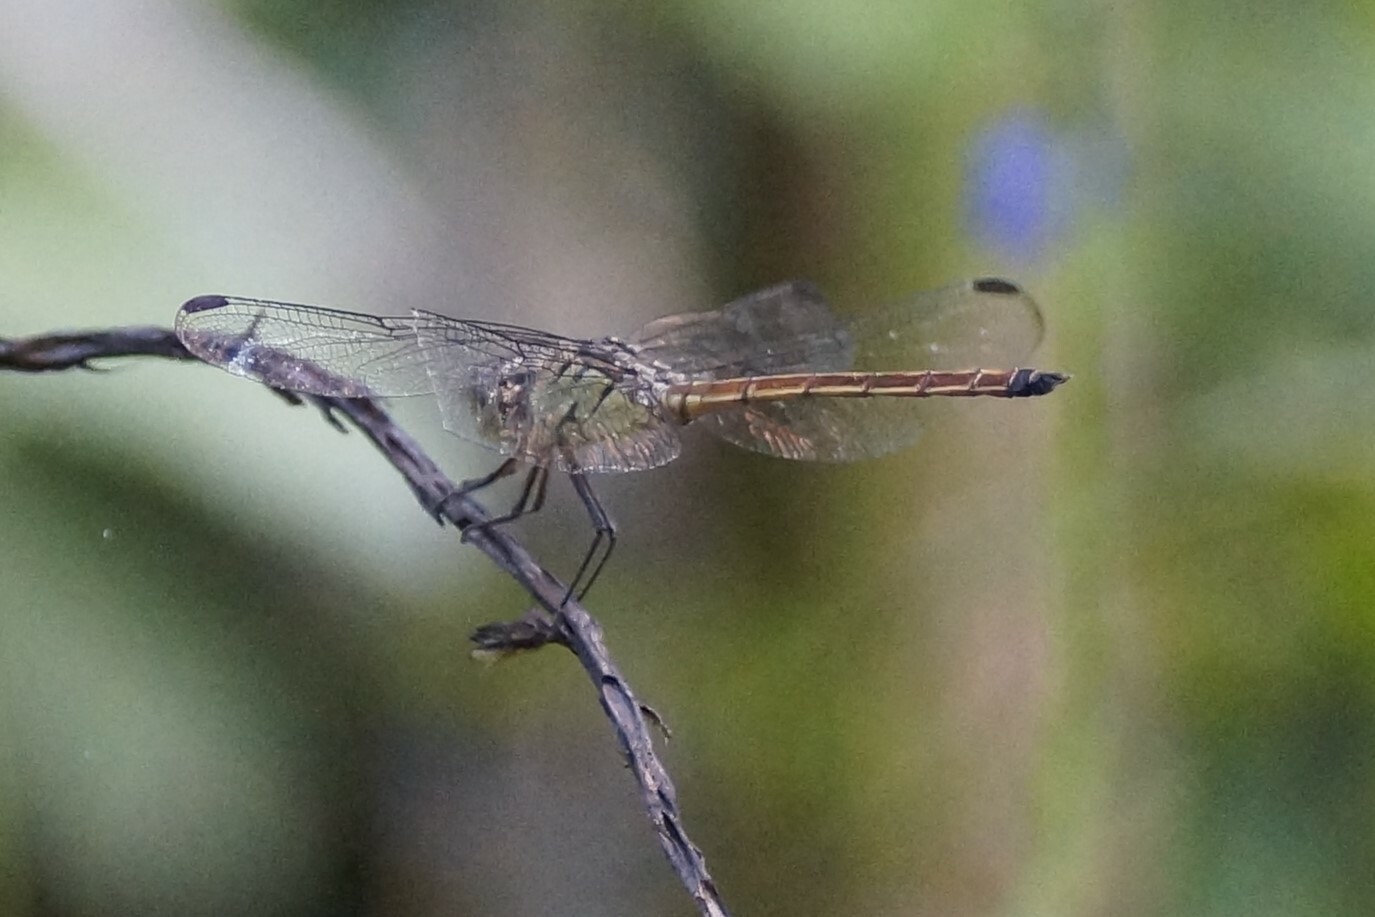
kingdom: Animalia
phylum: Arthropoda
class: Insecta
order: Odonata
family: Libellulidae
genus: Lathrecista
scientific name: Lathrecista asiatica
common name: Scarlet grenadier
